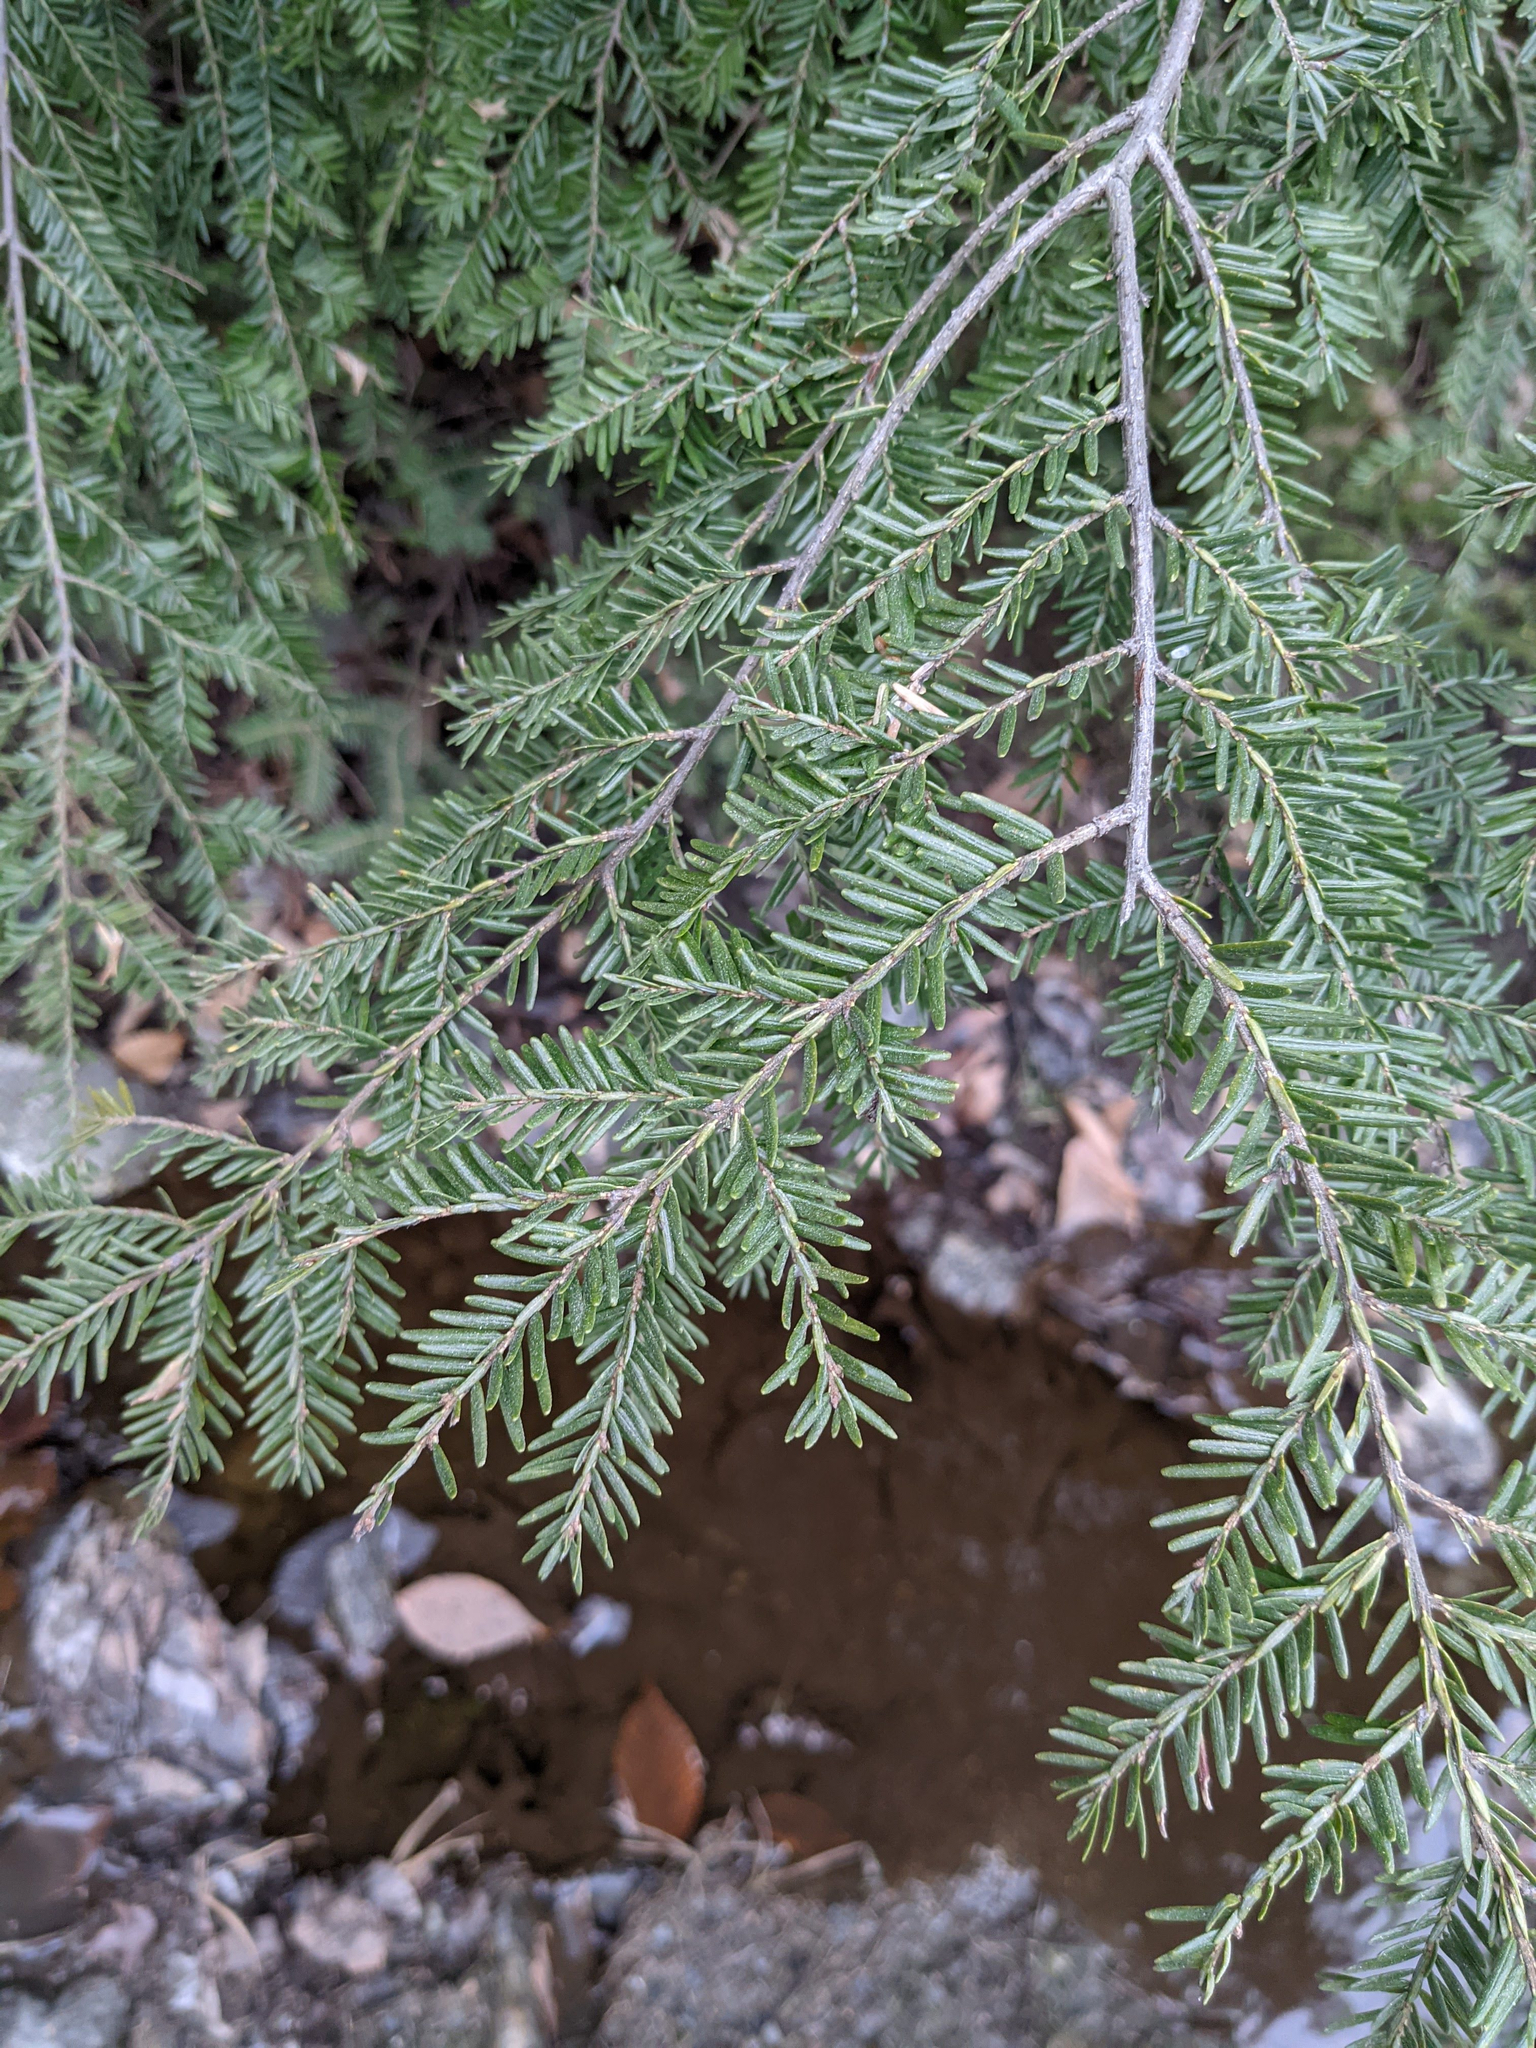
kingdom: Plantae
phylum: Tracheophyta
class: Pinopsida
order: Pinales
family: Pinaceae
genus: Tsuga
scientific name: Tsuga canadensis
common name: Eastern hemlock
